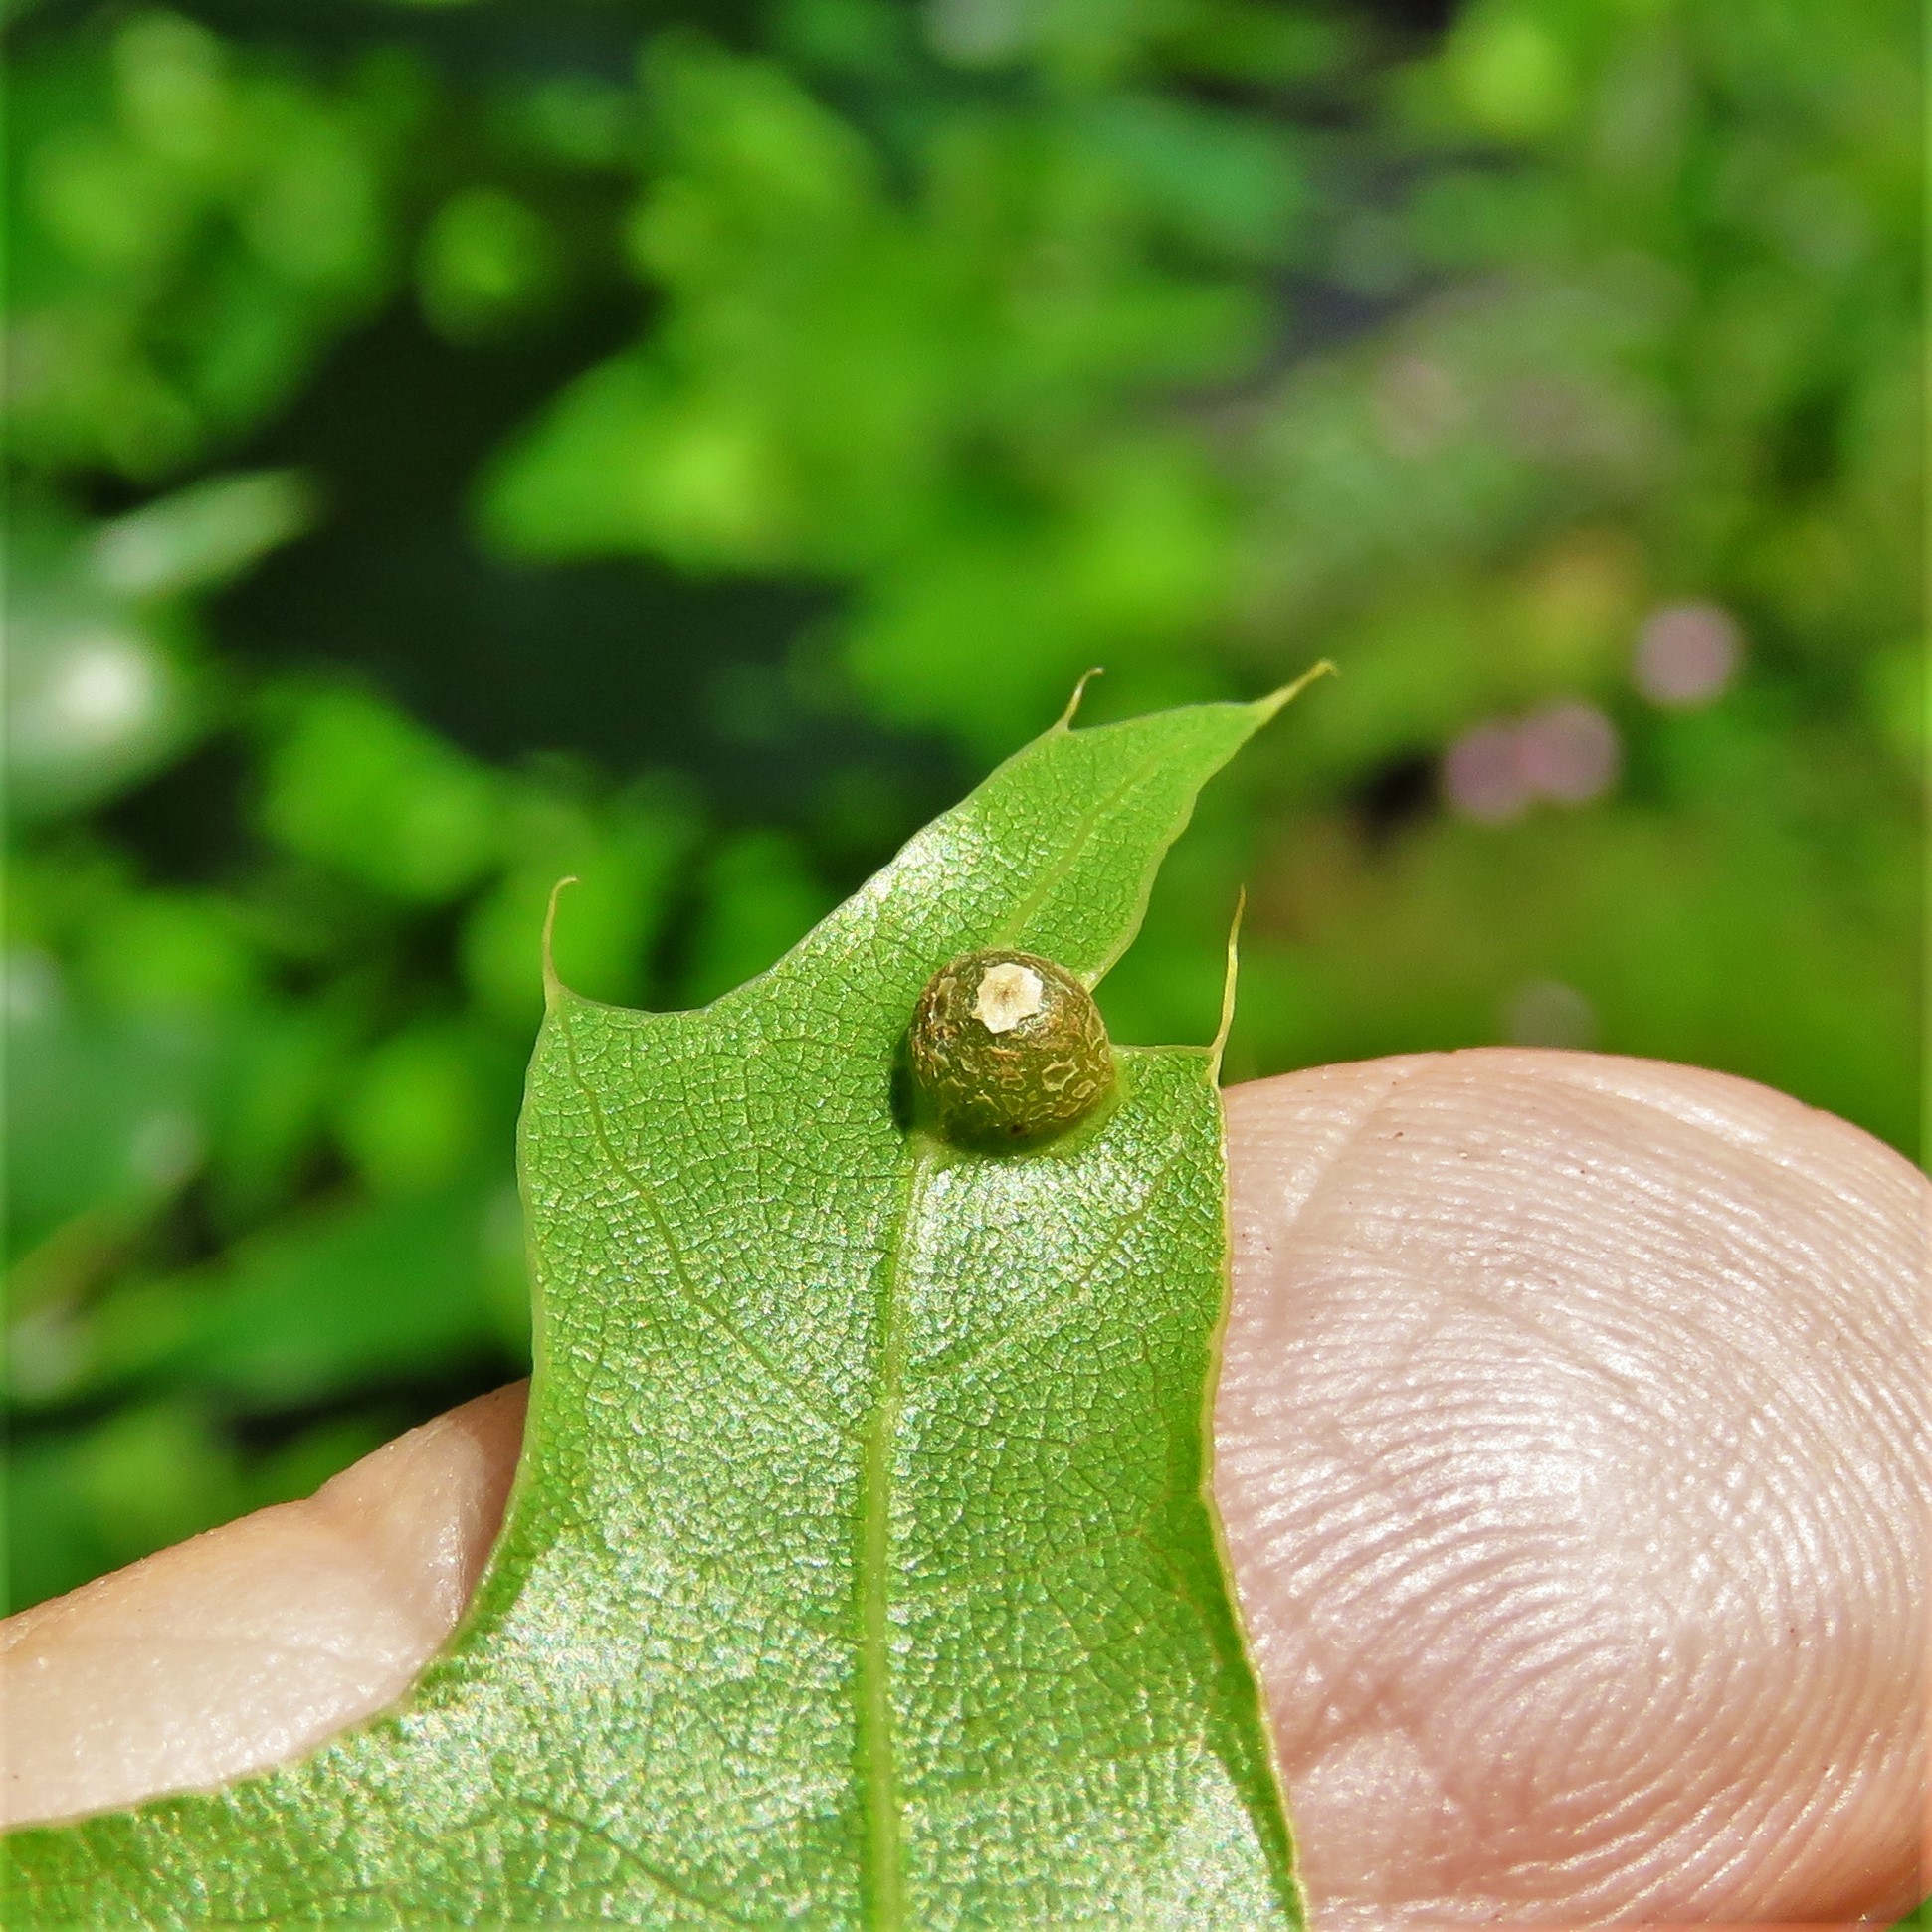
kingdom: Animalia
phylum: Arthropoda
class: Insecta
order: Diptera
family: Cecidomyiidae
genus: Polystepha
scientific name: Polystepha globosa
